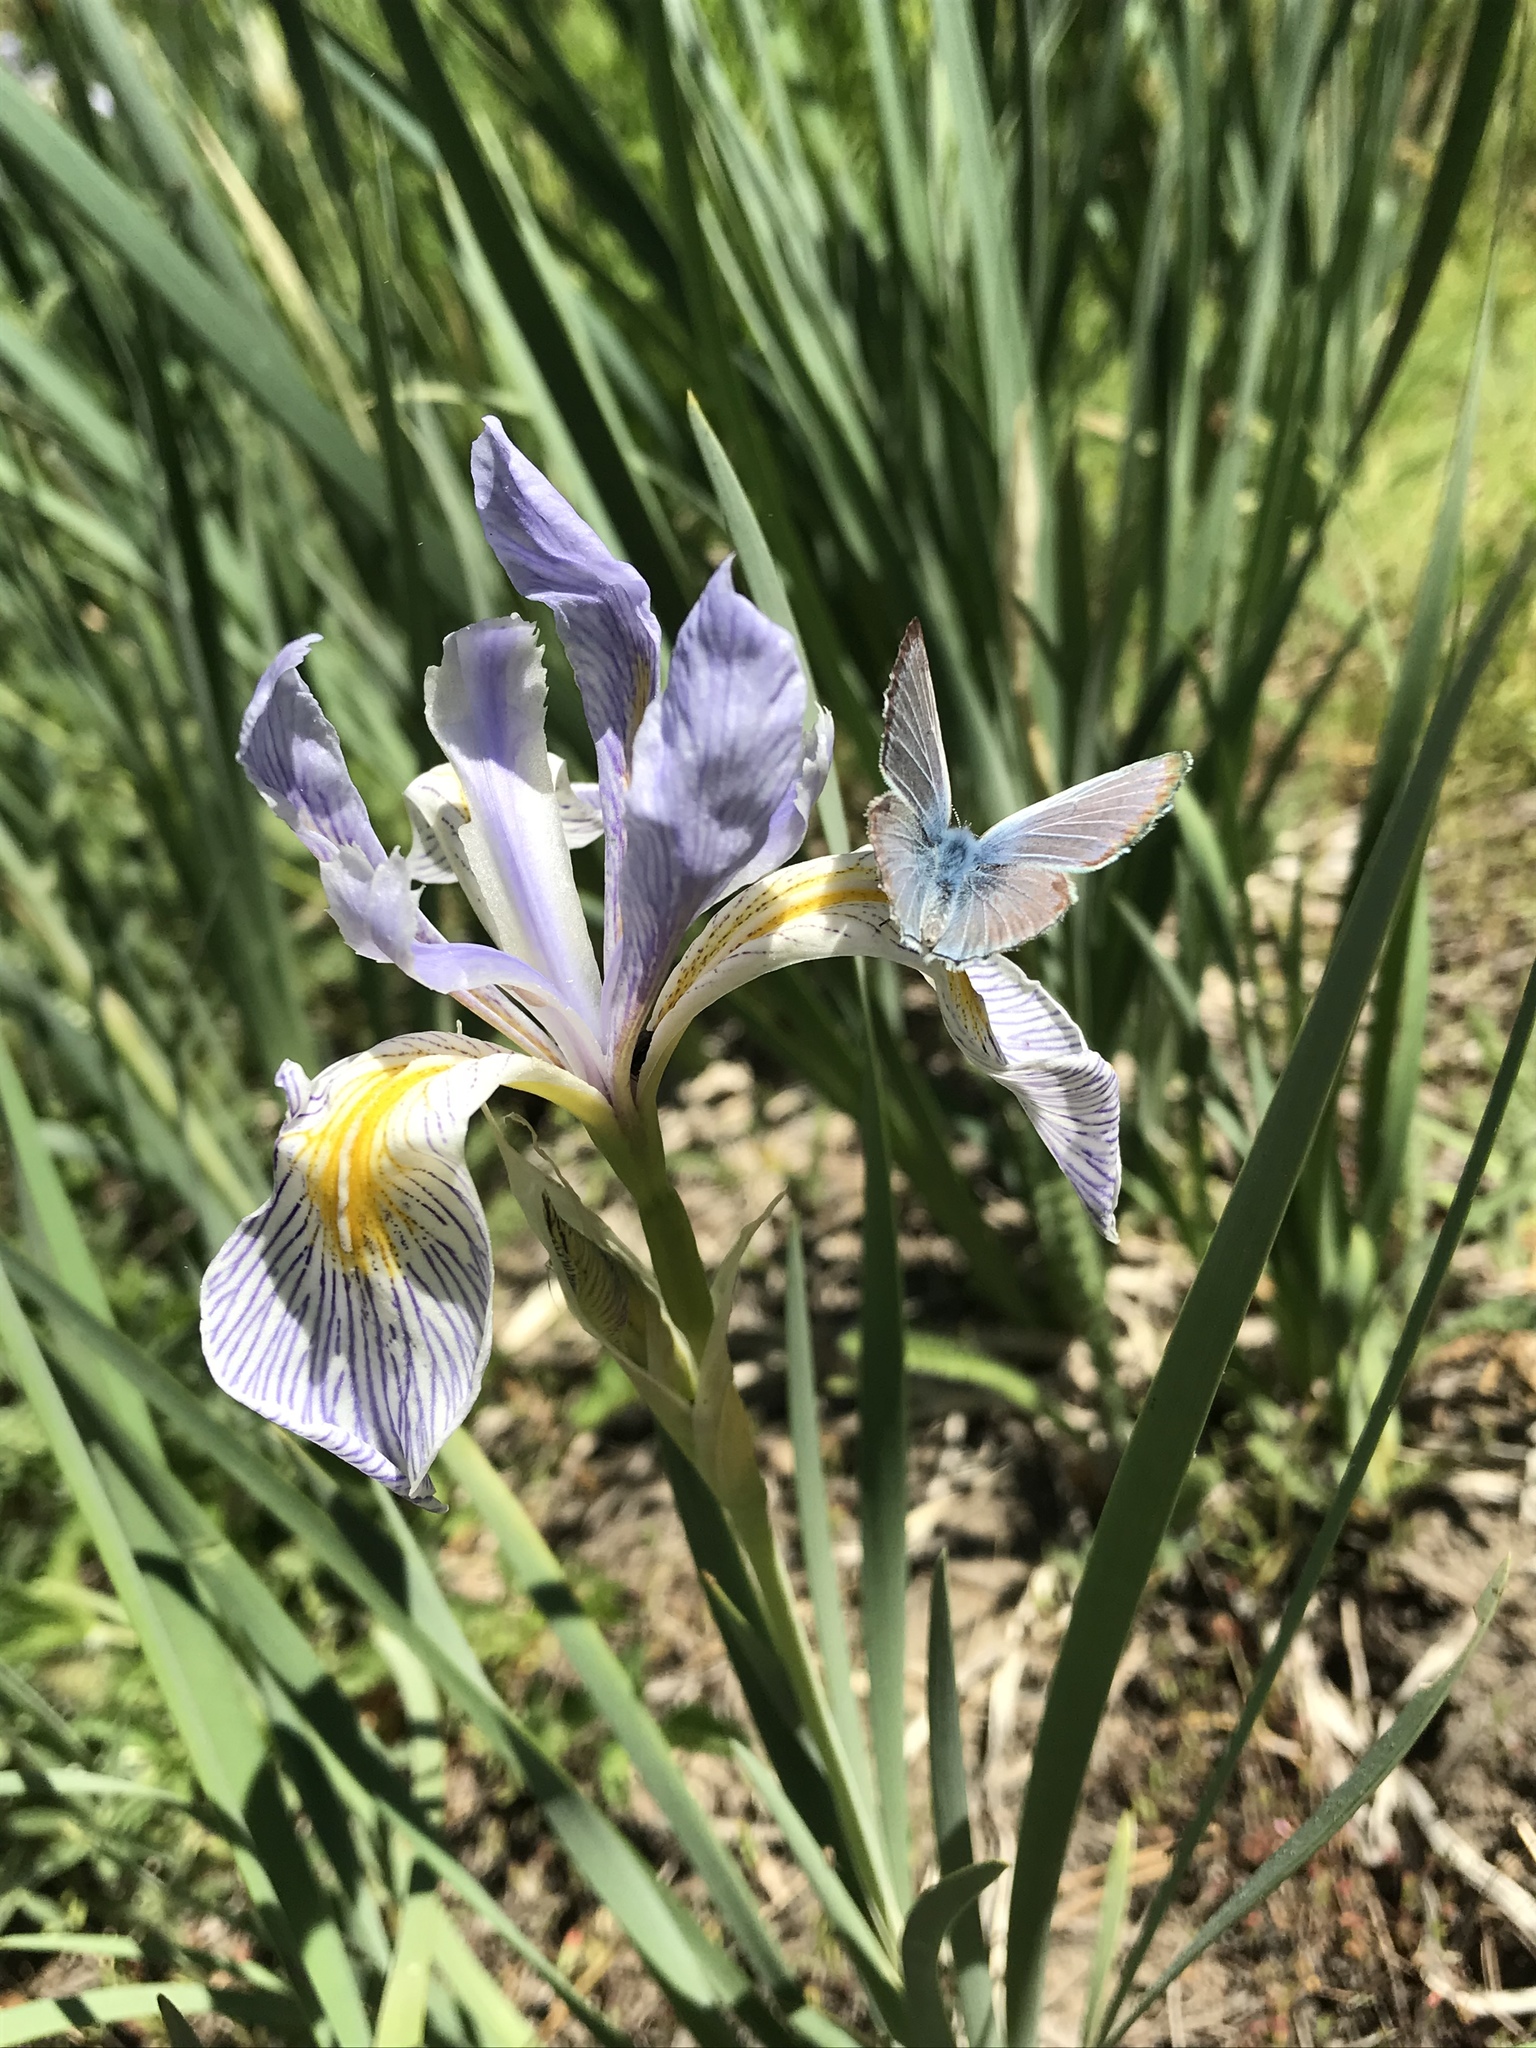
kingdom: Plantae
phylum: Tracheophyta
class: Liliopsida
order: Asparagales
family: Iridaceae
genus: Iris
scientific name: Iris missouriensis
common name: Rocky mountain iris
